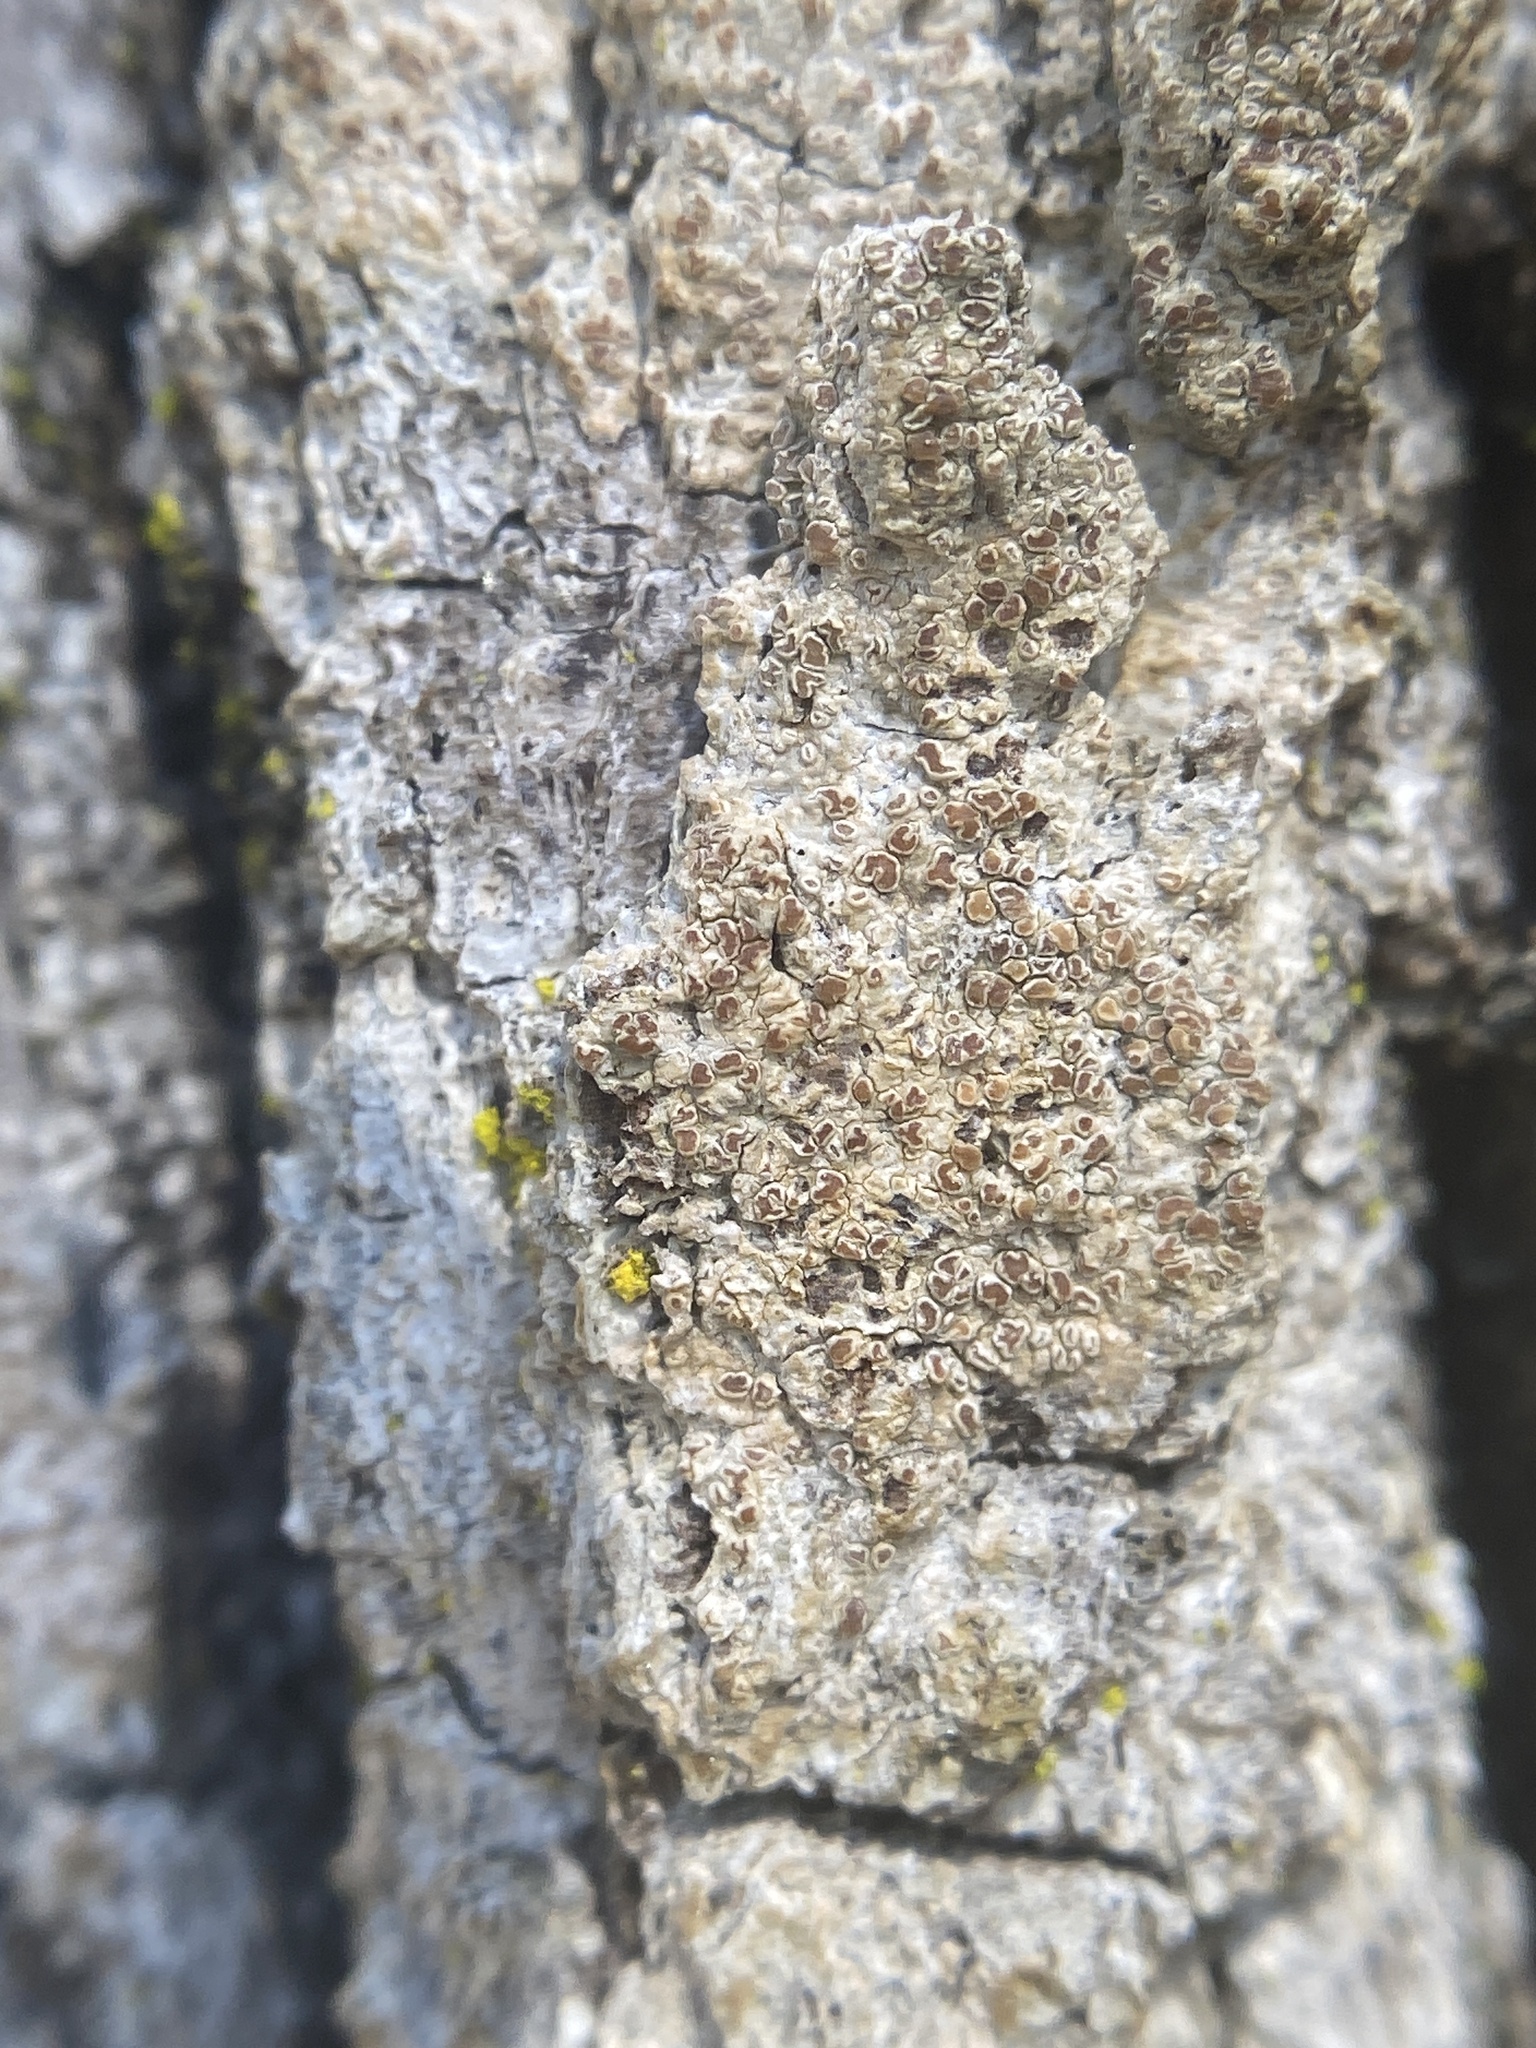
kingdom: Fungi
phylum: Ascomycota
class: Arthoniomycetes
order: Arthoniales
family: Opegraphaceae
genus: Nyungwea
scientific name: Nyungwea anguinella
